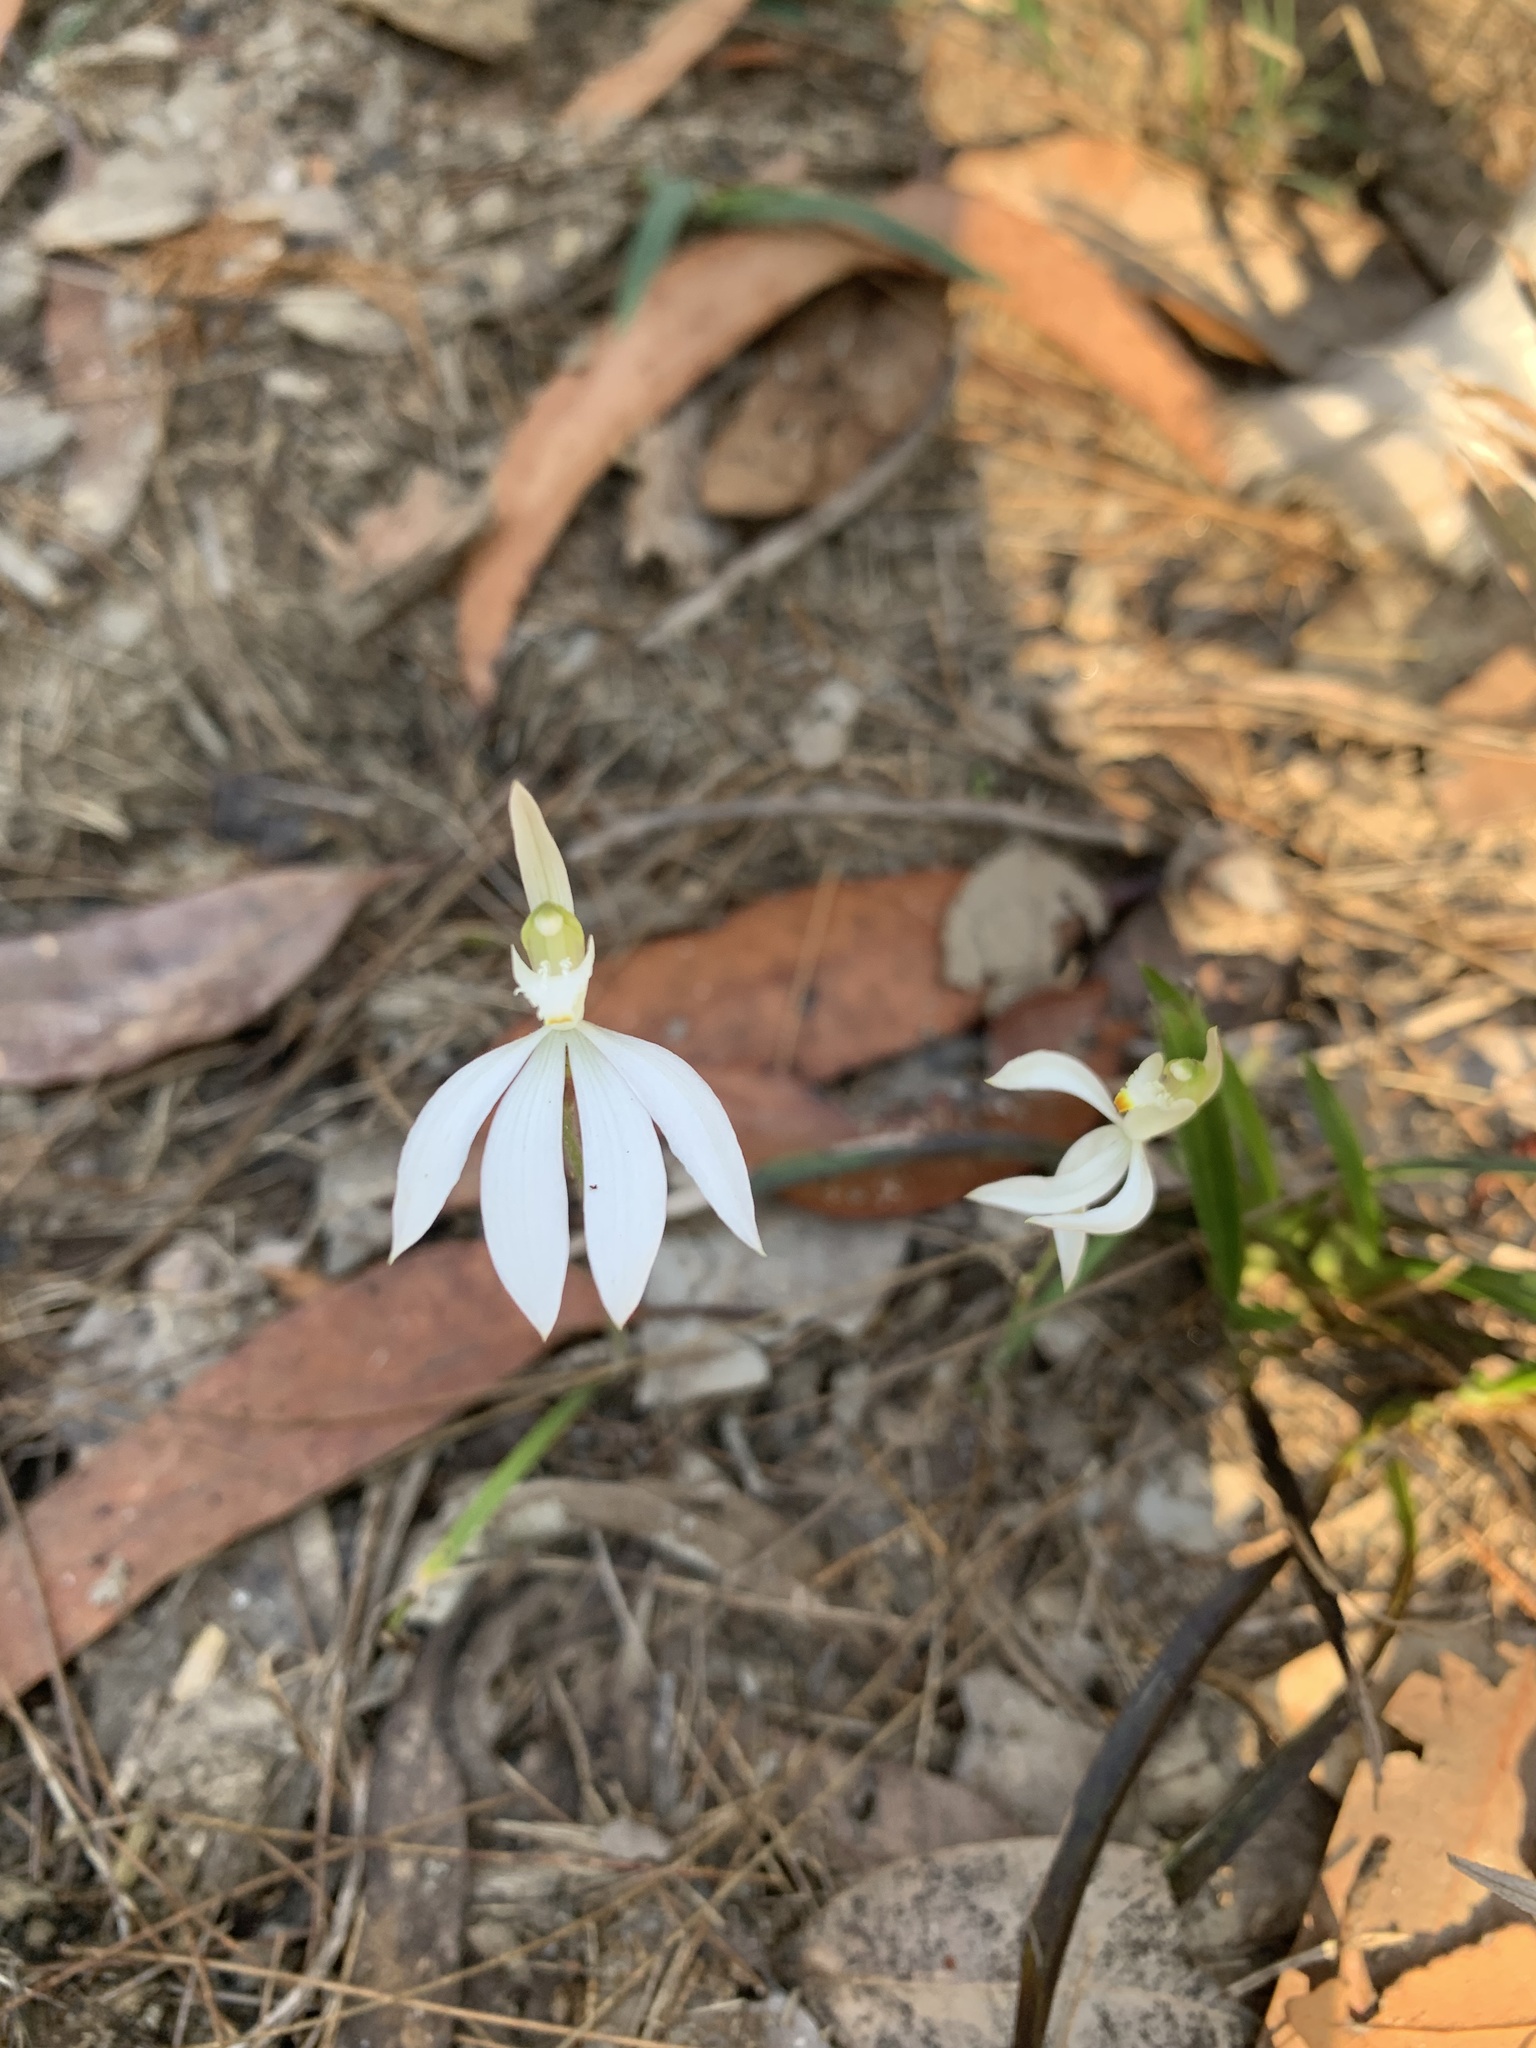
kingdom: Plantae
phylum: Tracheophyta
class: Liliopsida
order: Asparagales
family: Orchidaceae
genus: Caladenia
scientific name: Caladenia catenata
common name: White caladenia
